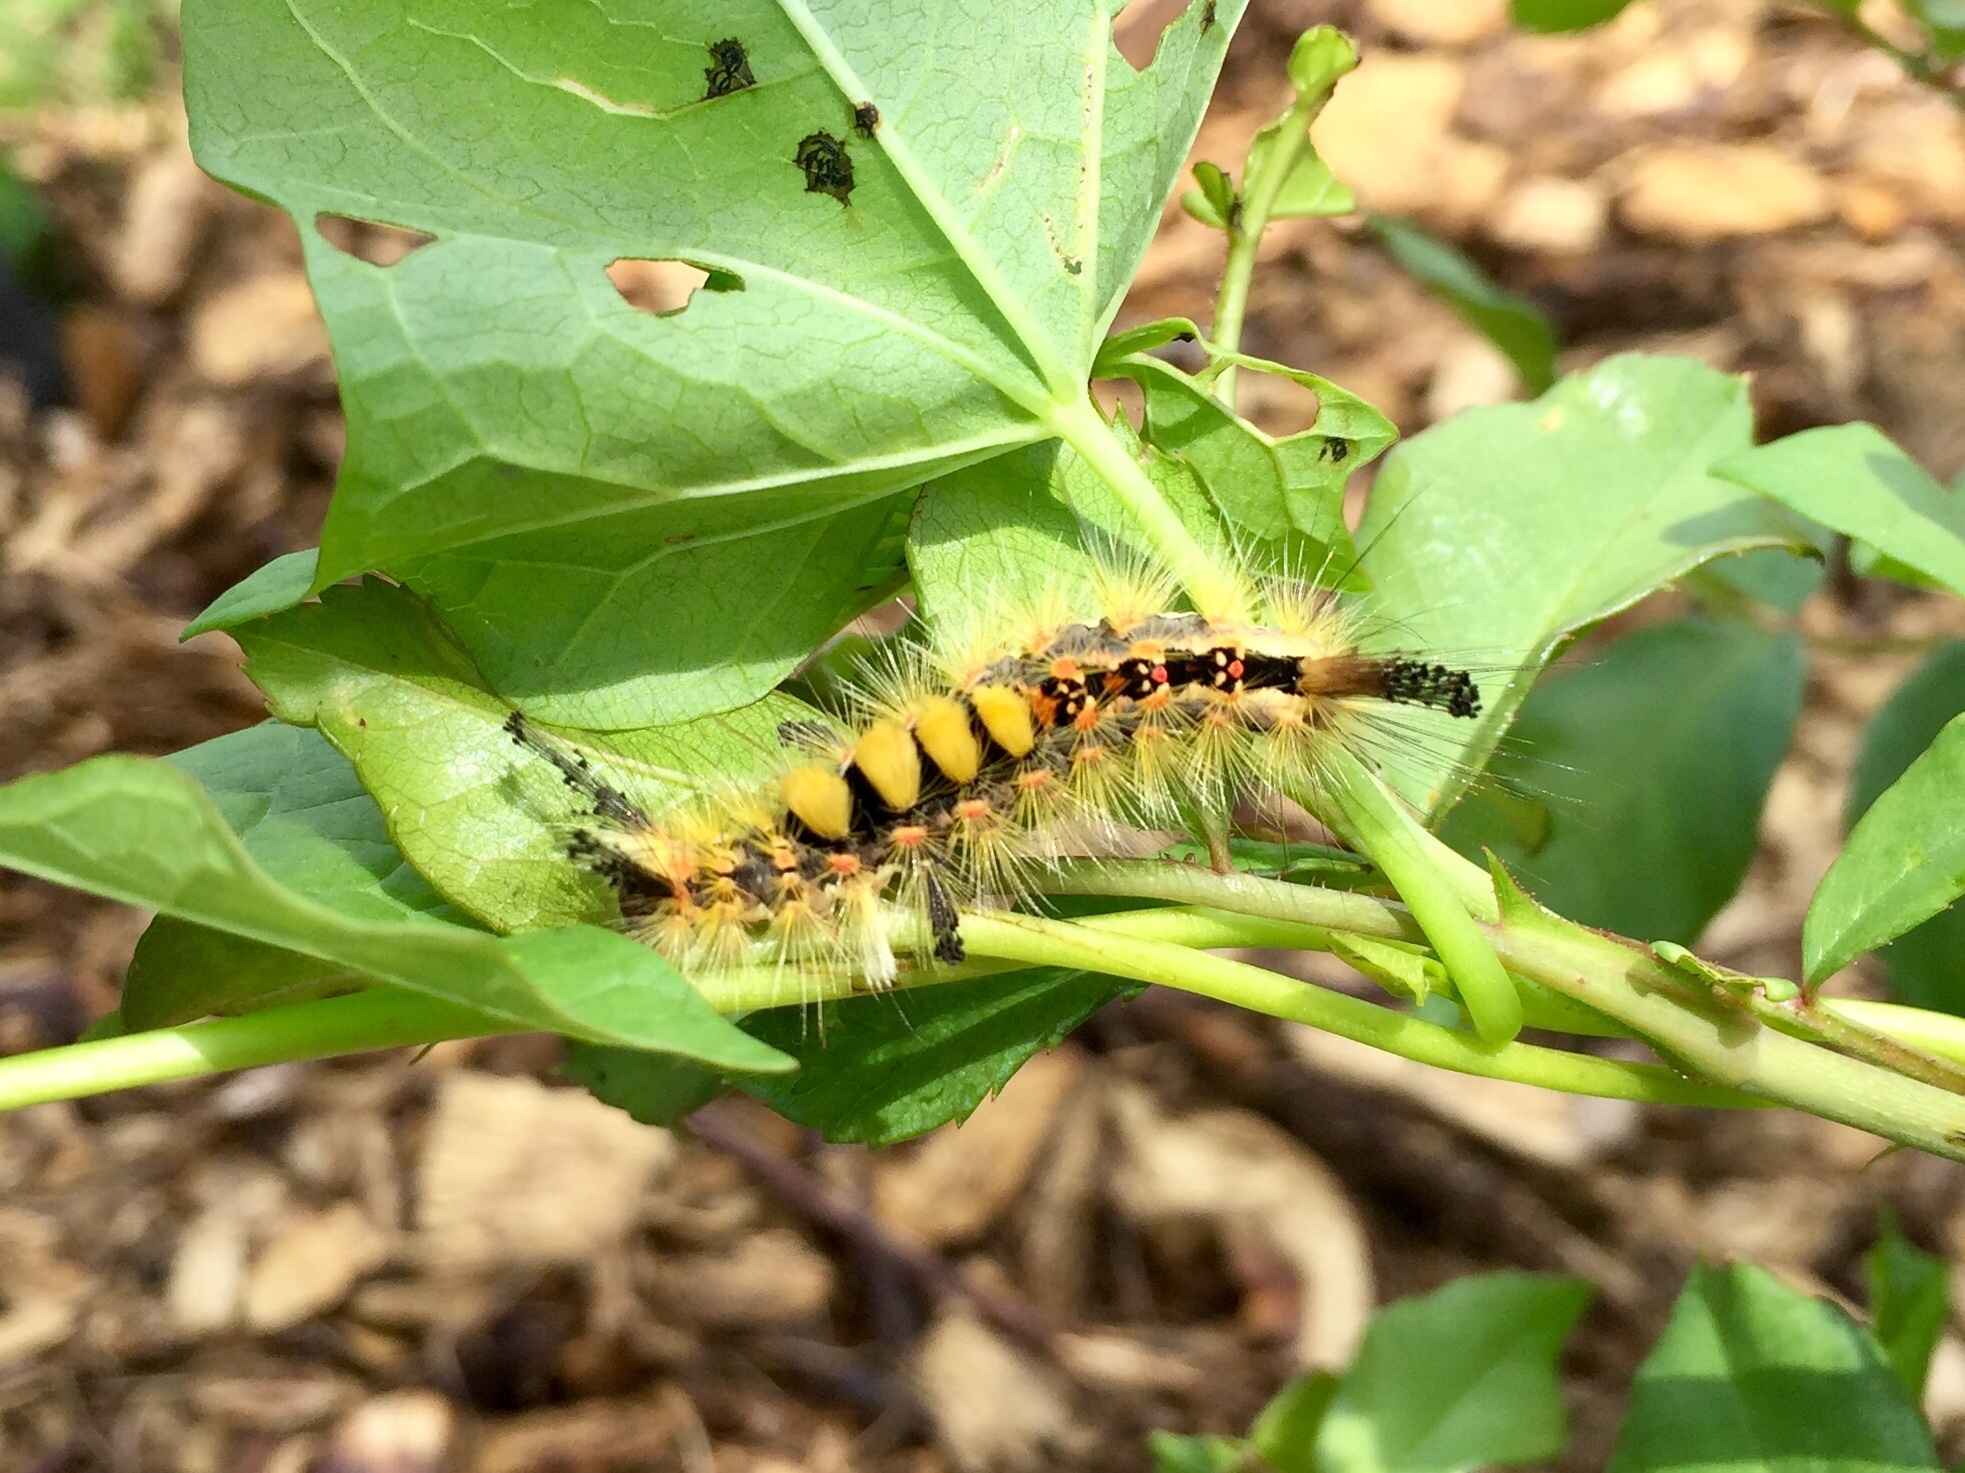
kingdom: Animalia
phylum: Arthropoda
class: Insecta
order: Lepidoptera
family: Erebidae
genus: Orgyia
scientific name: Orgyia antiqua
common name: Vapourer
